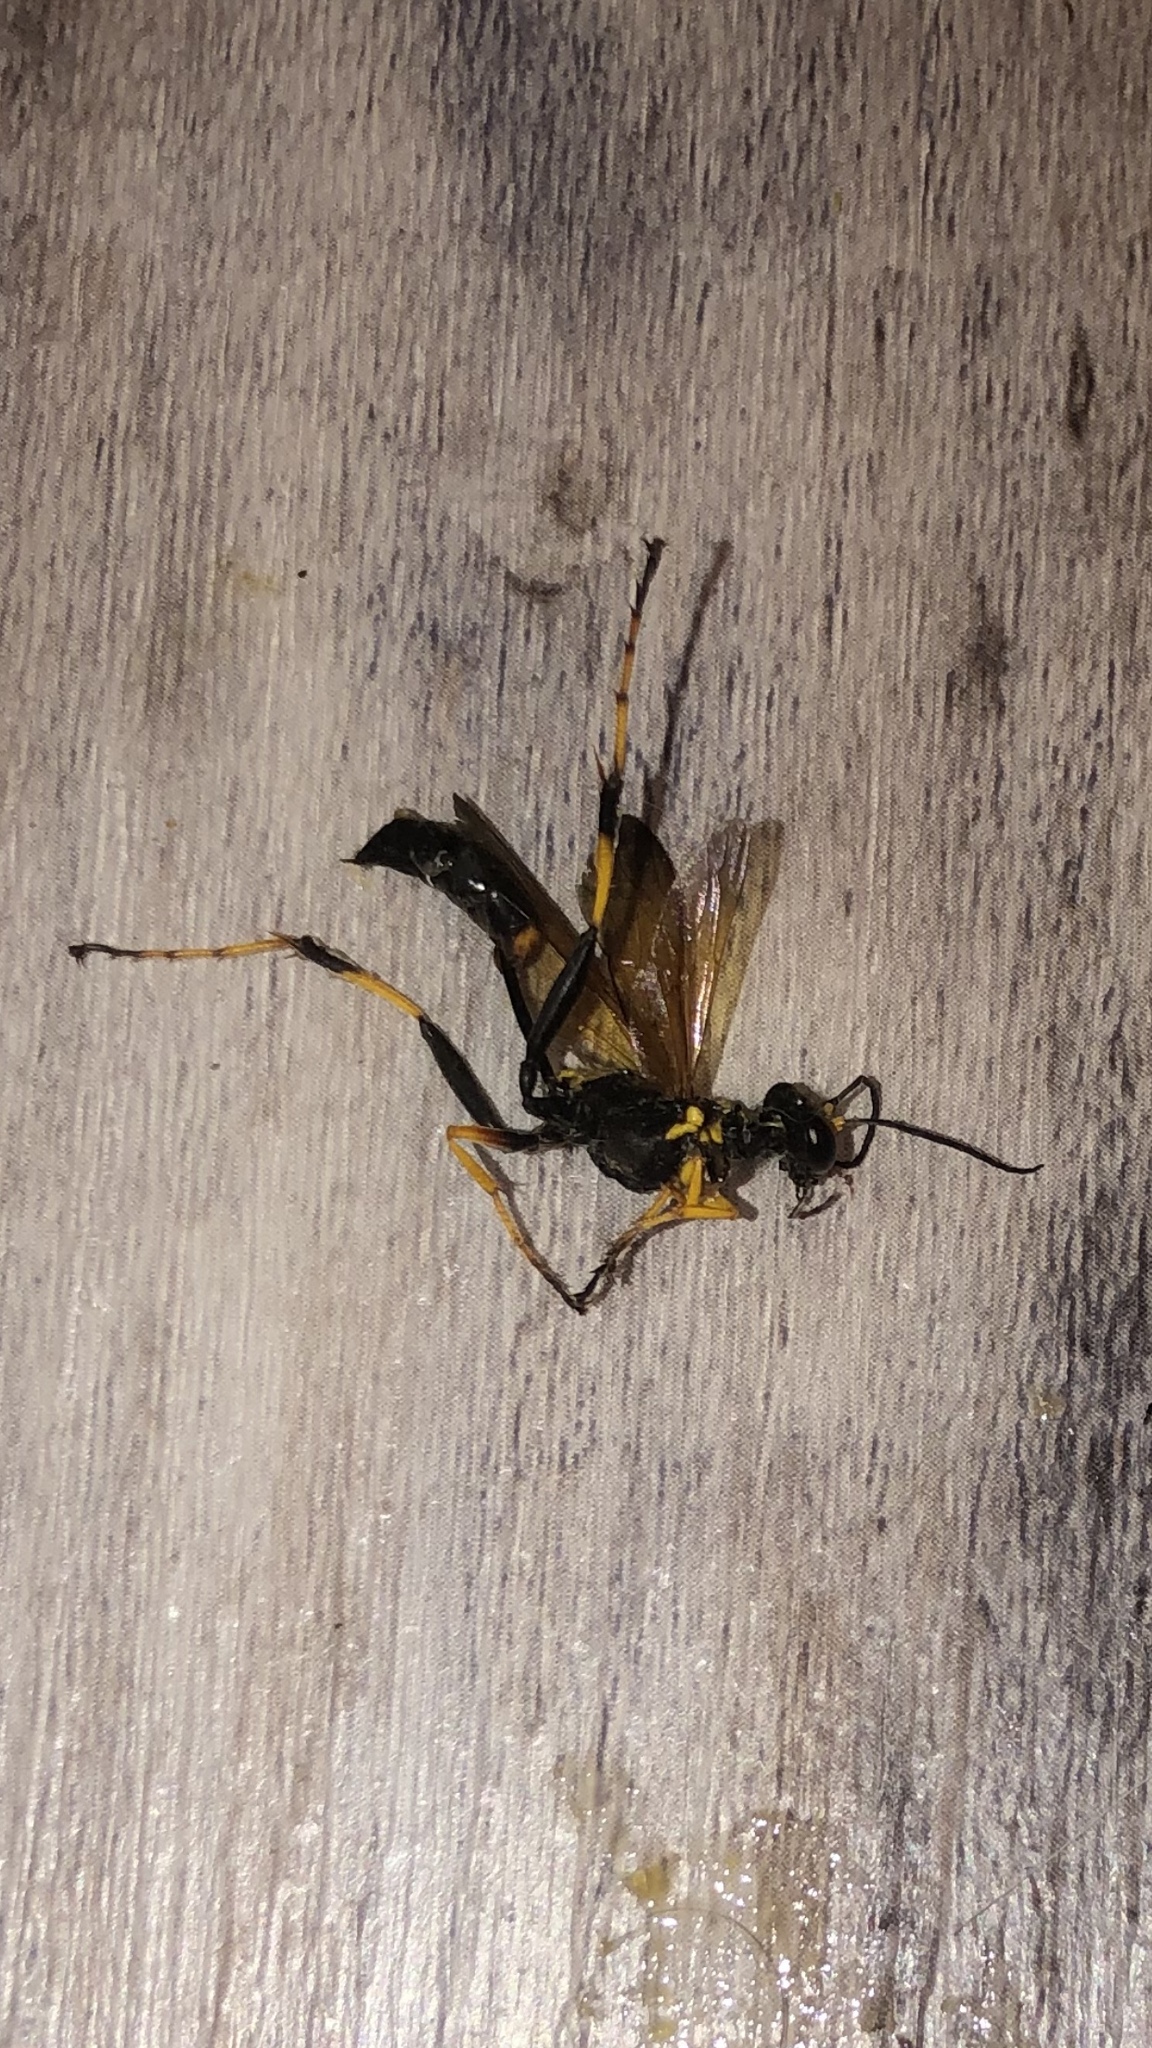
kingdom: Animalia
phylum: Arthropoda
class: Insecta
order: Hymenoptera
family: Sphecidae
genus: Sceliphron
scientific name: Sceliphron caementarium
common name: Mud dauber
